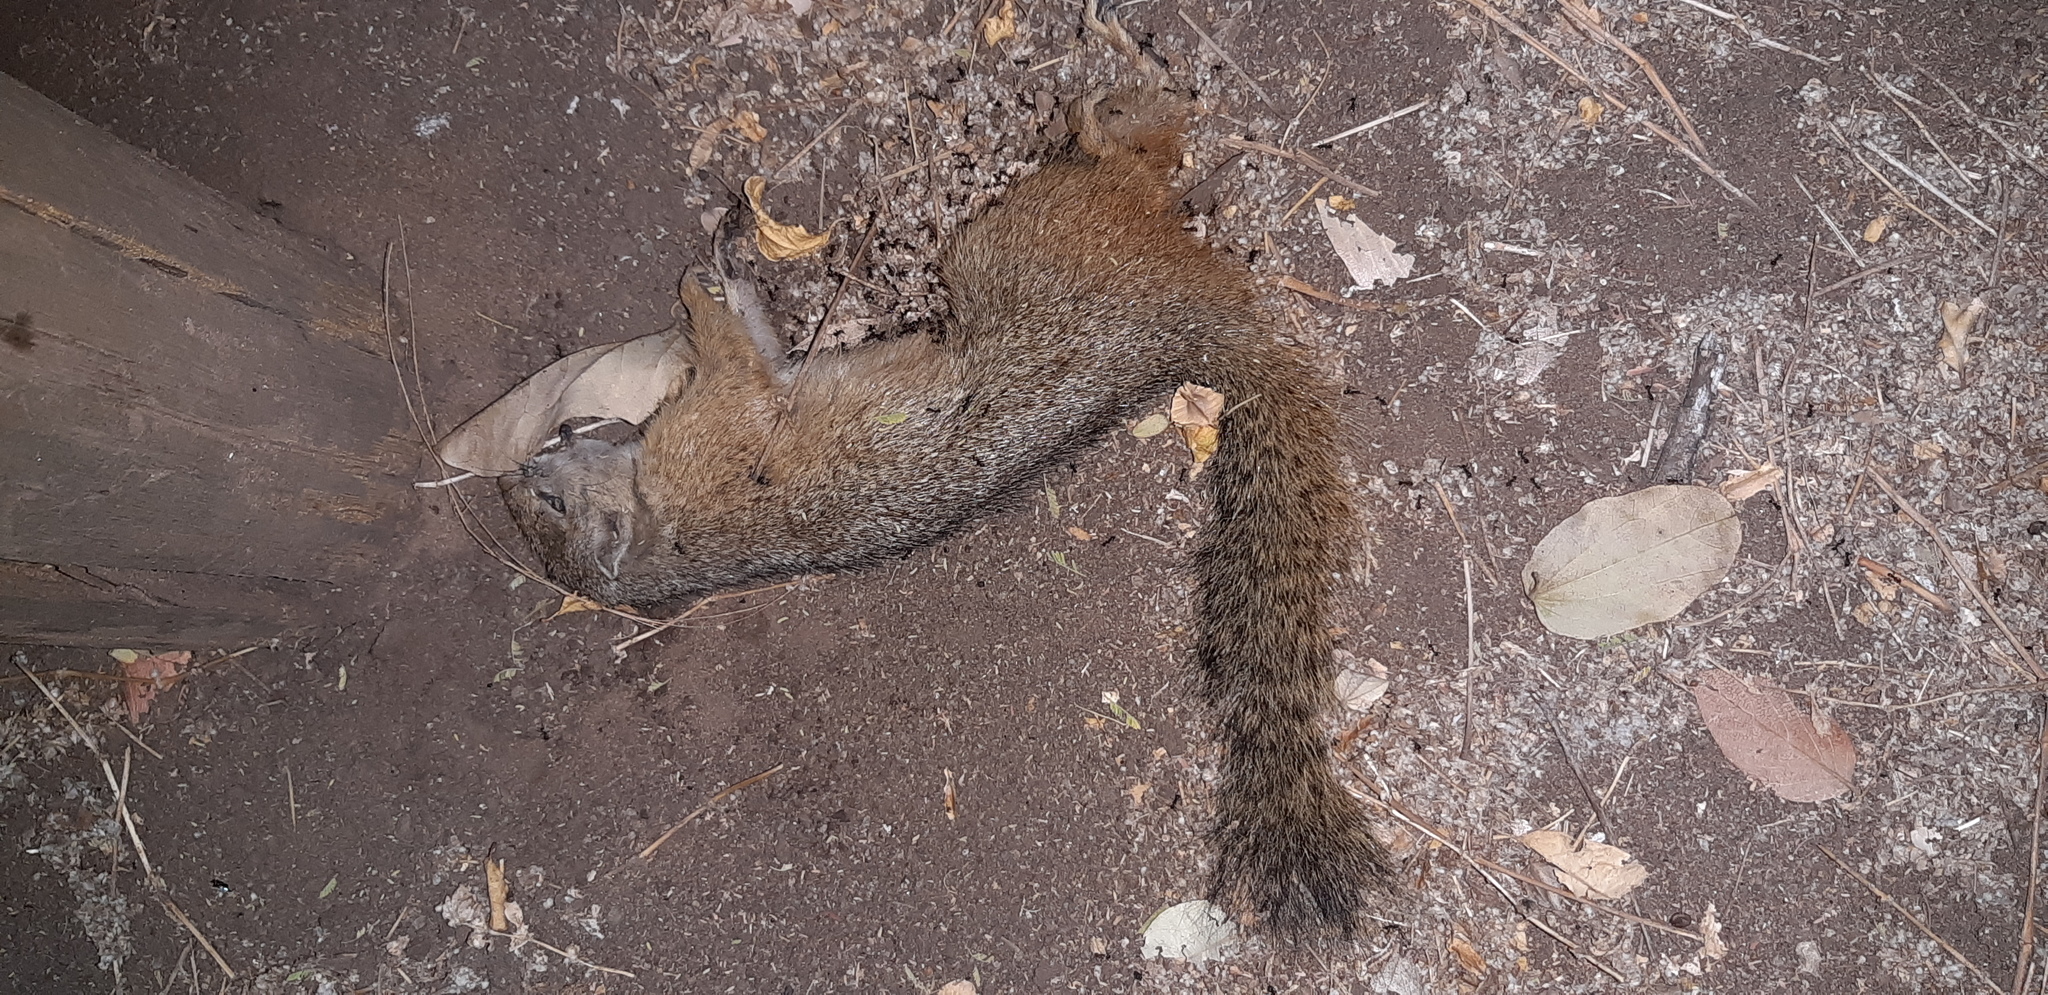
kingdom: Animalia
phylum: Chordata
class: Mammalia
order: Rodentia
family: Sciuridae
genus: Paraxerus
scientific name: Paraxerus cepapi
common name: Smith's bush squirrel
